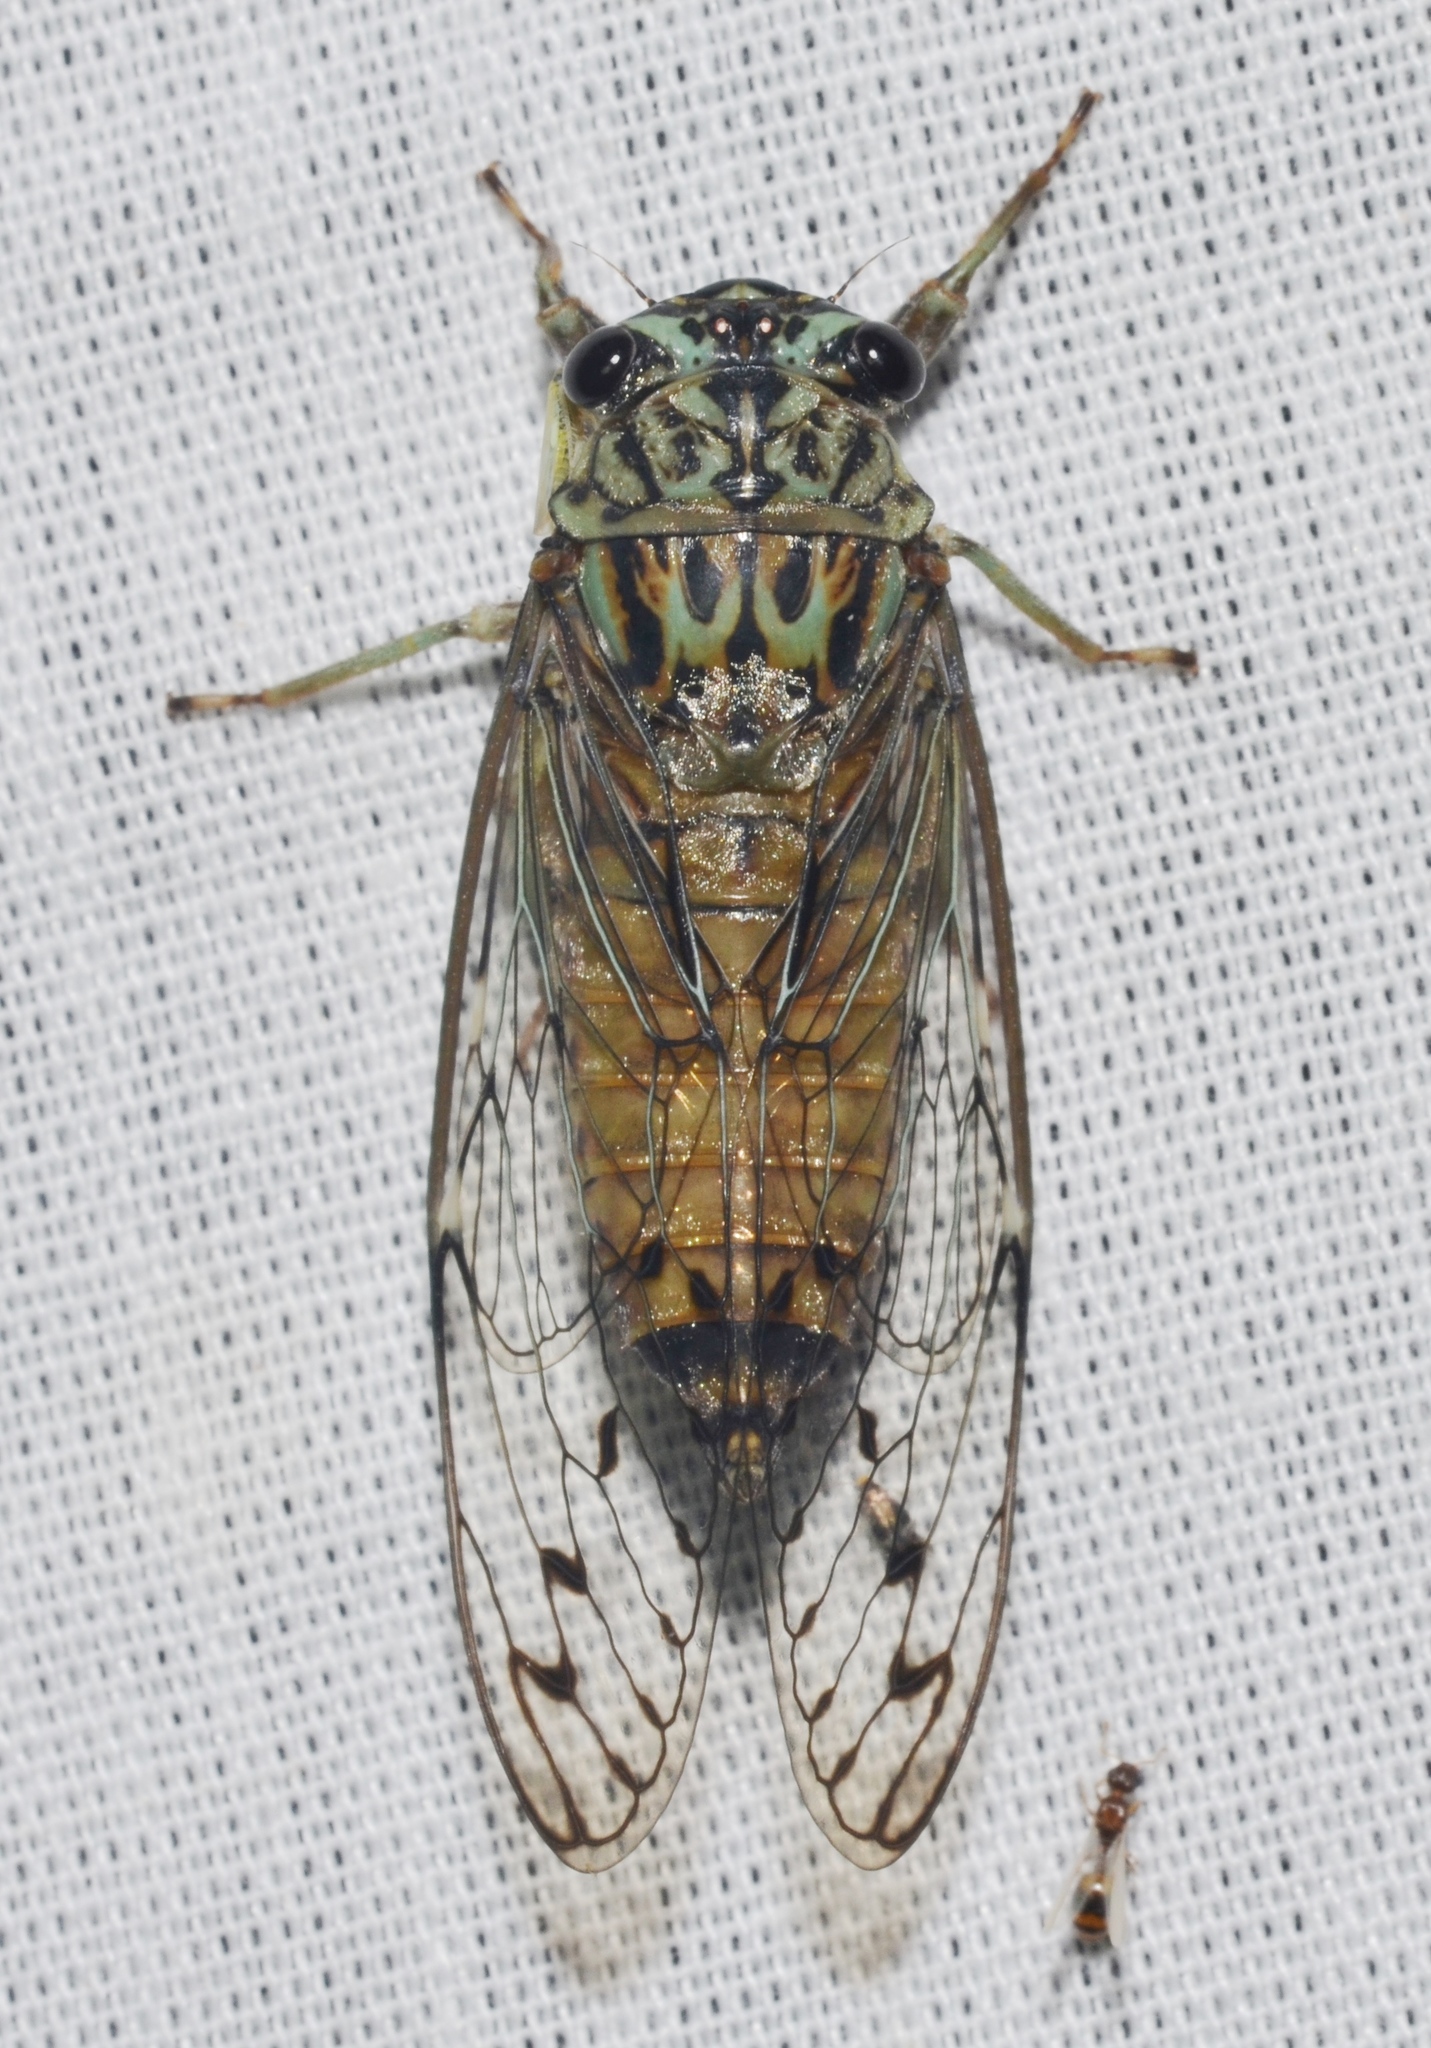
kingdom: Animalia
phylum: Arthropoda
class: Insecta
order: Hemiptera
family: Cicadidae
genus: Neocicada
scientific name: Neocicada hieroglyphica
